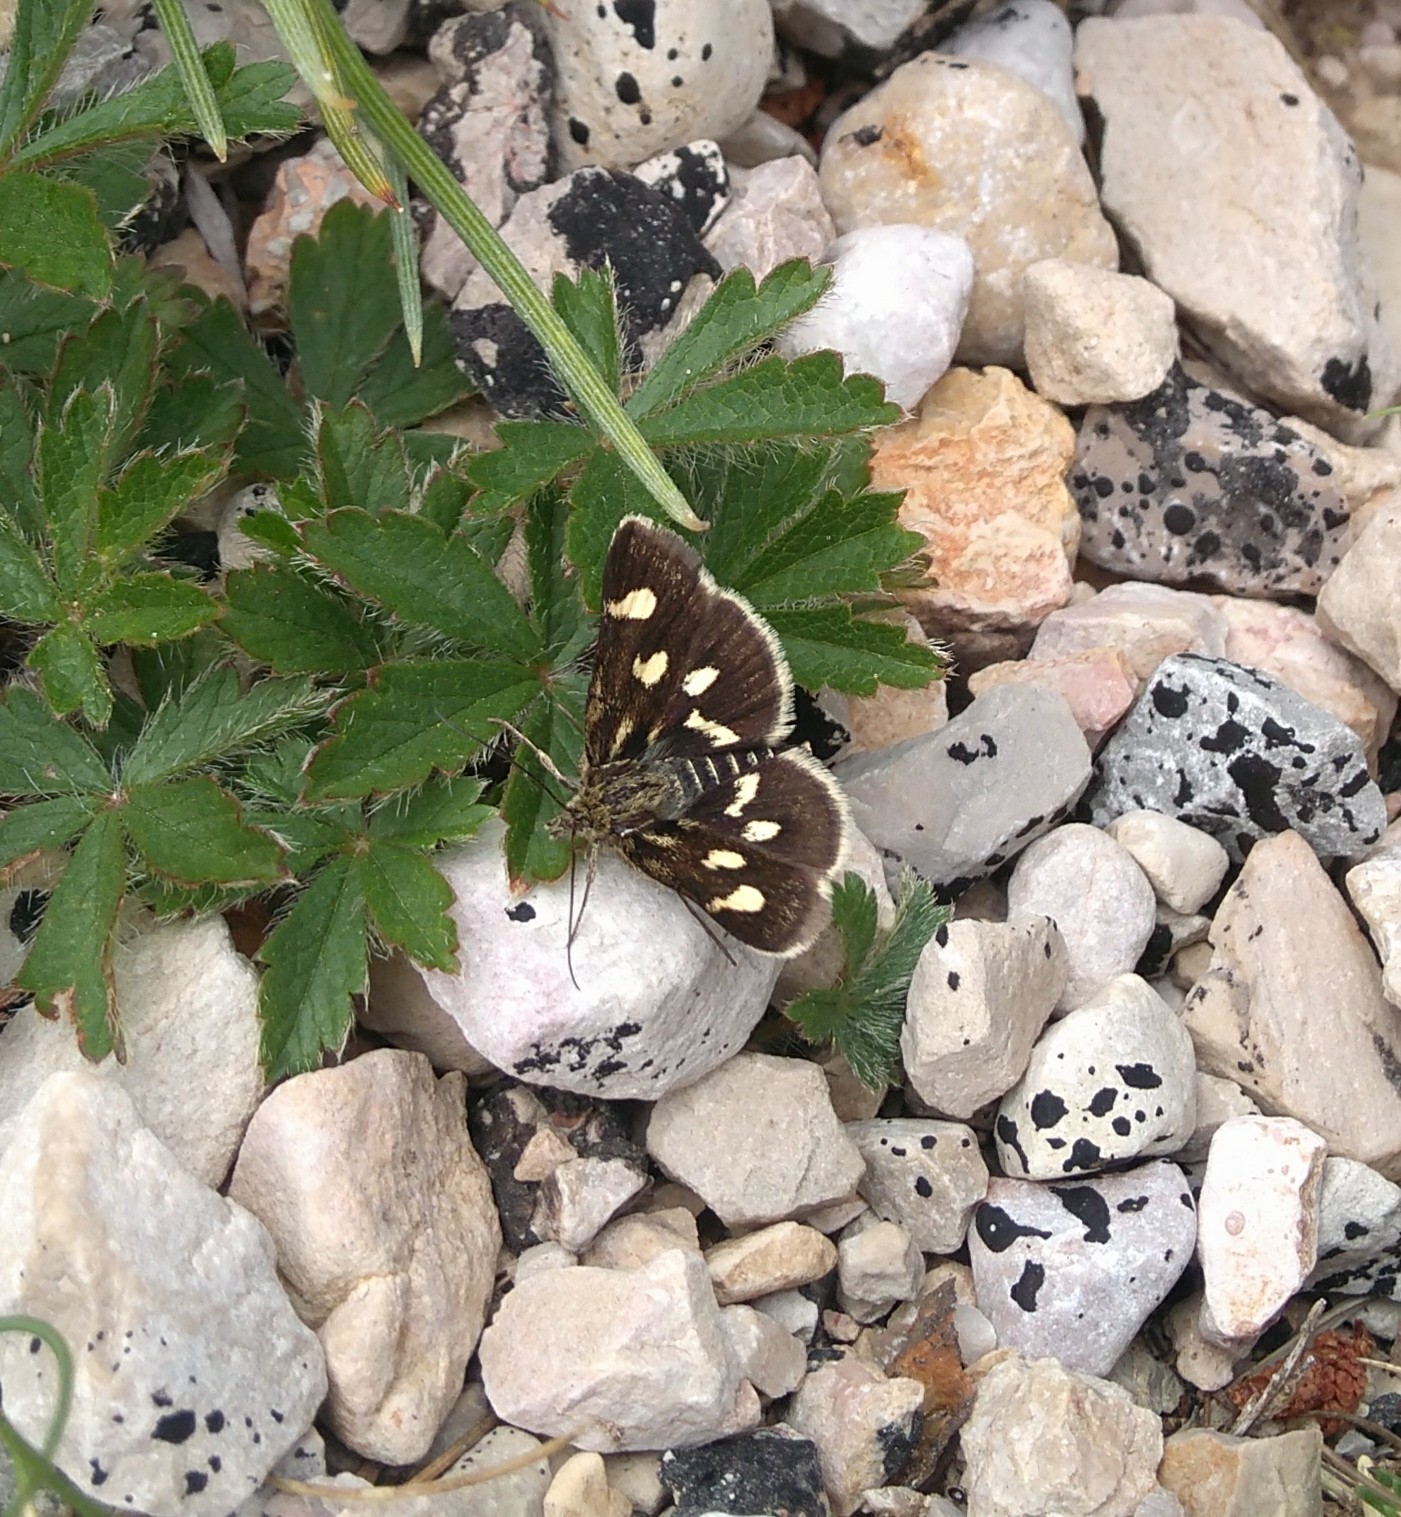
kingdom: Animalia
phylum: Arthropoda
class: Insecta
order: Lepidoptera
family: Crambidae
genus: Eurrhypis
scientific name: Eurrhypis pollinalis
